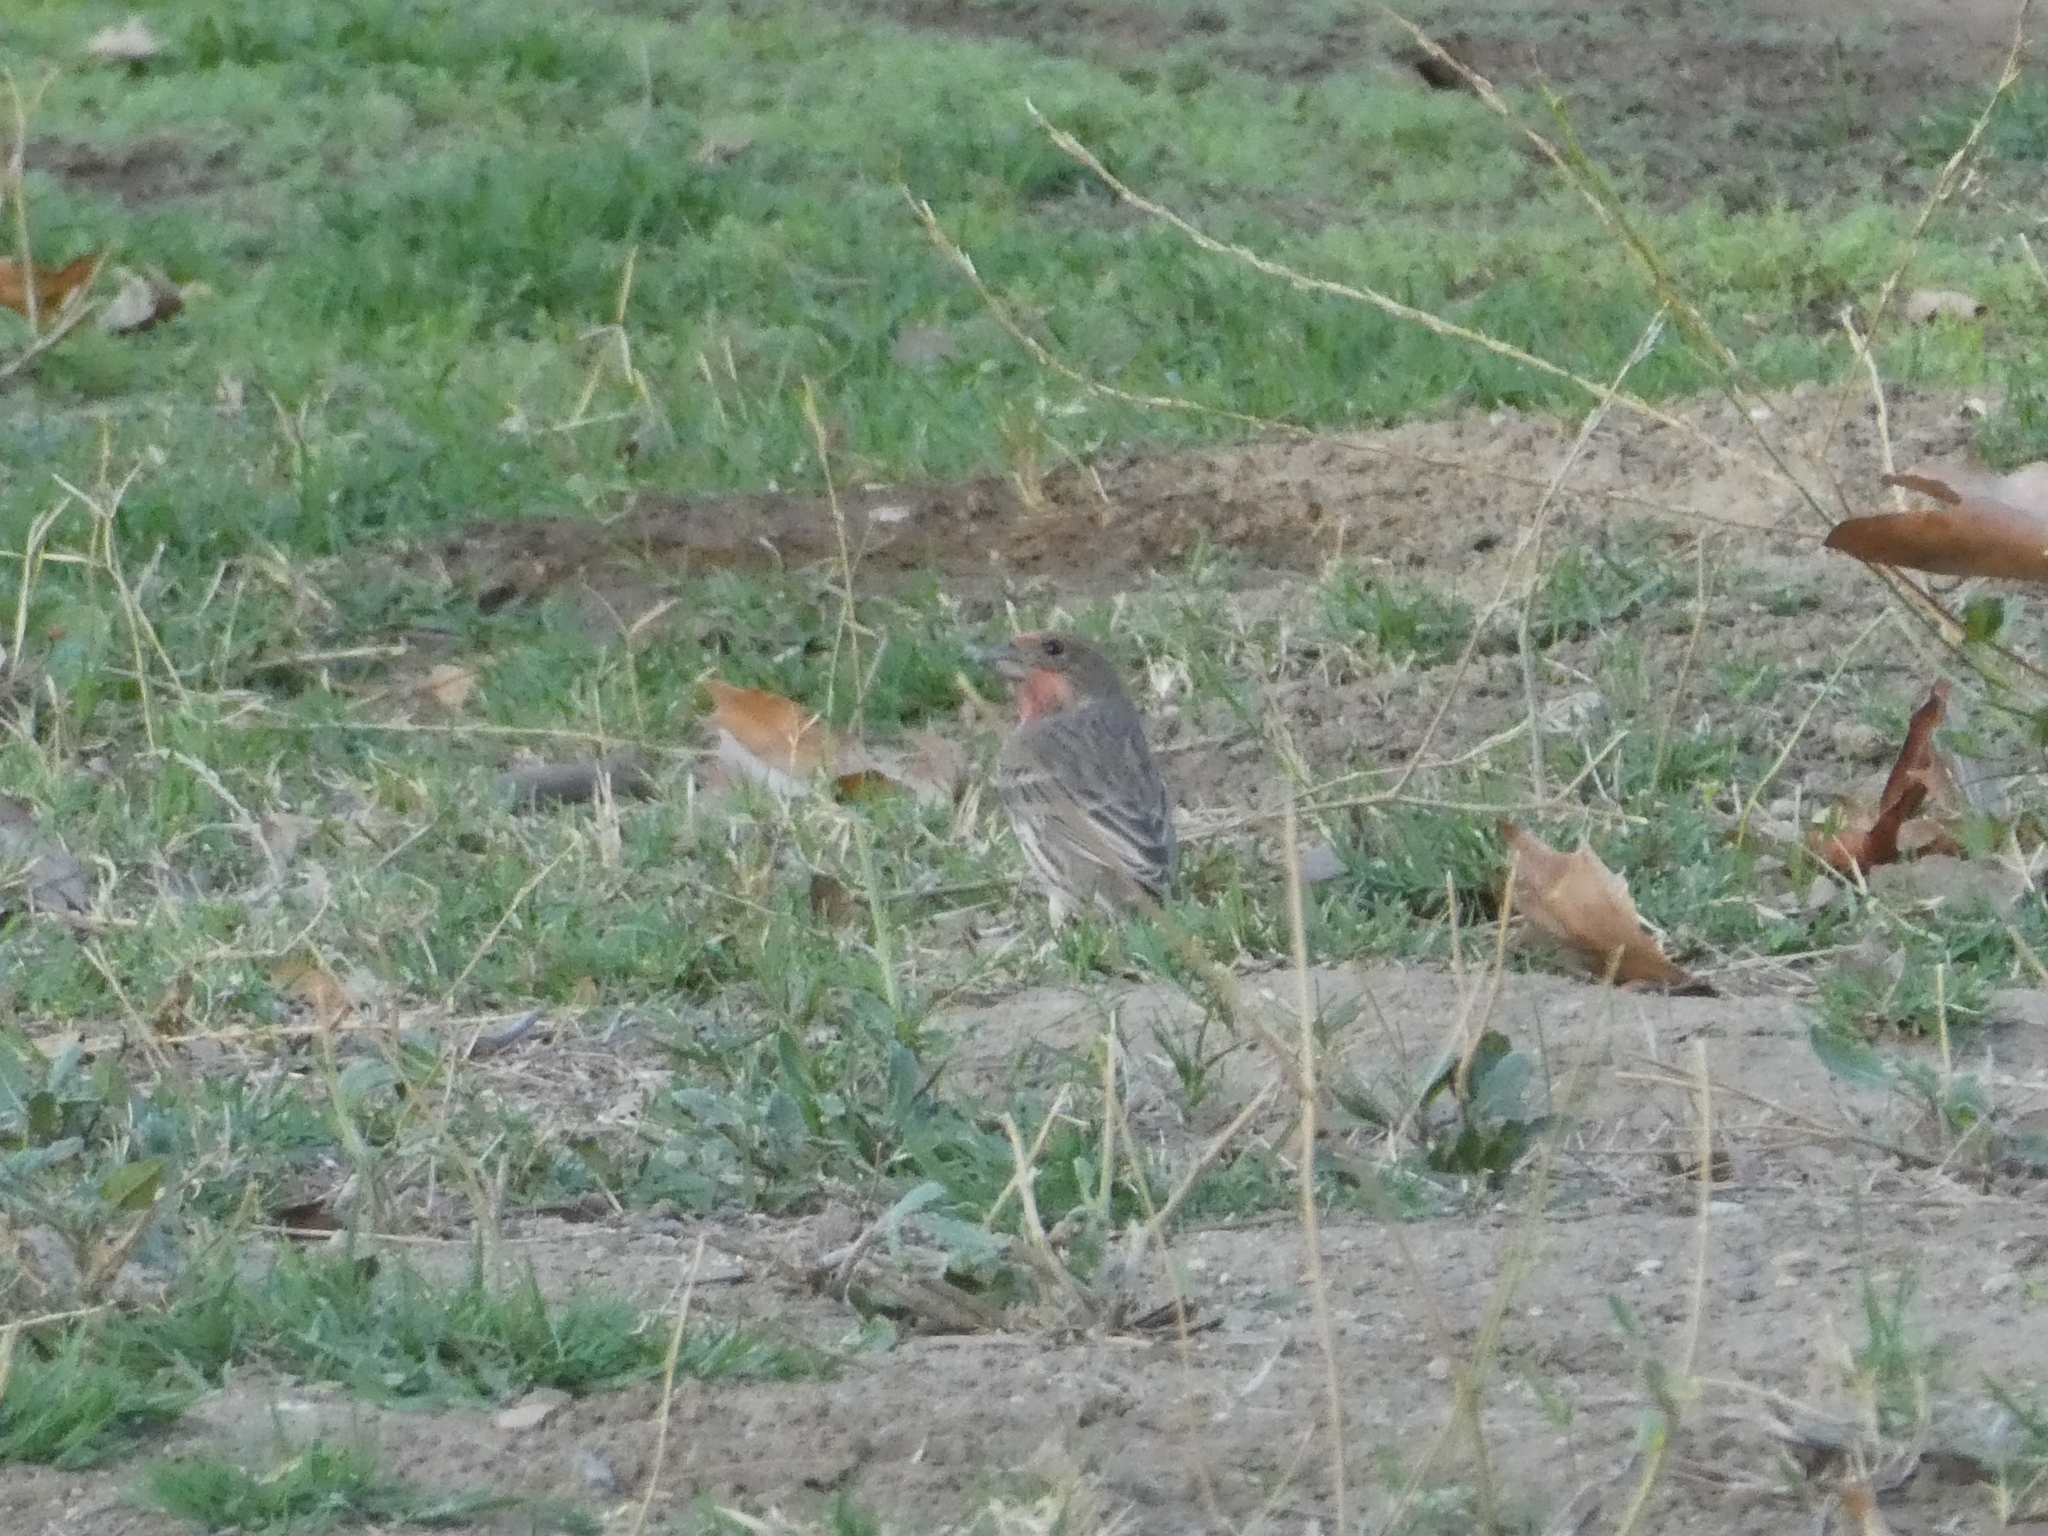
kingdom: Animalia
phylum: Chordata
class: Aves
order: Passeriformes
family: Fringillidae
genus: Haemorhous
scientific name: Haemorhous mexicanus
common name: House finch
